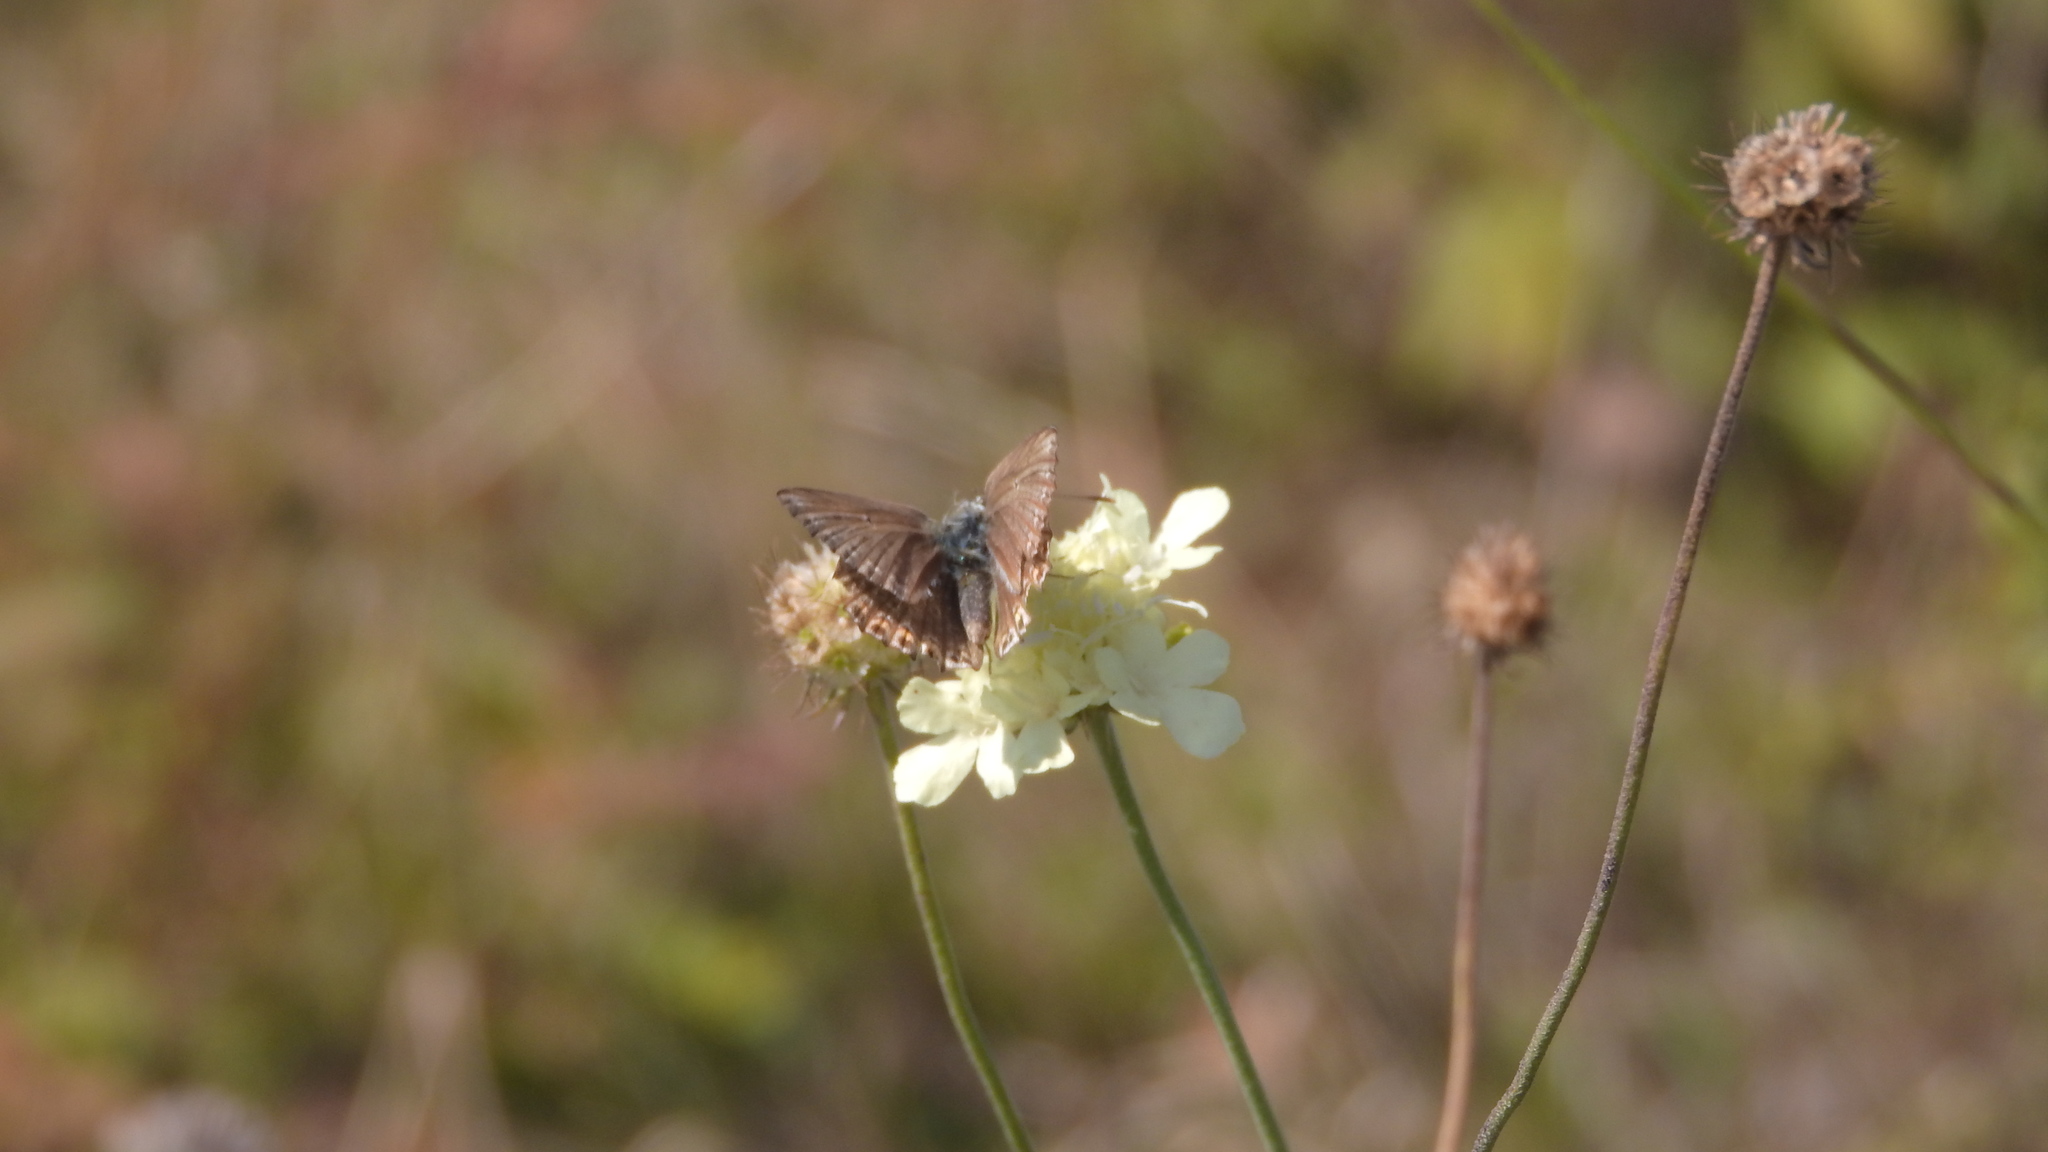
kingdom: Animalia
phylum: Arthropoda
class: Insecta
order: Lepidoptera
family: Lycaenidae
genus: Lysandra
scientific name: Lysandra coridon
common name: Chalkhill blue
